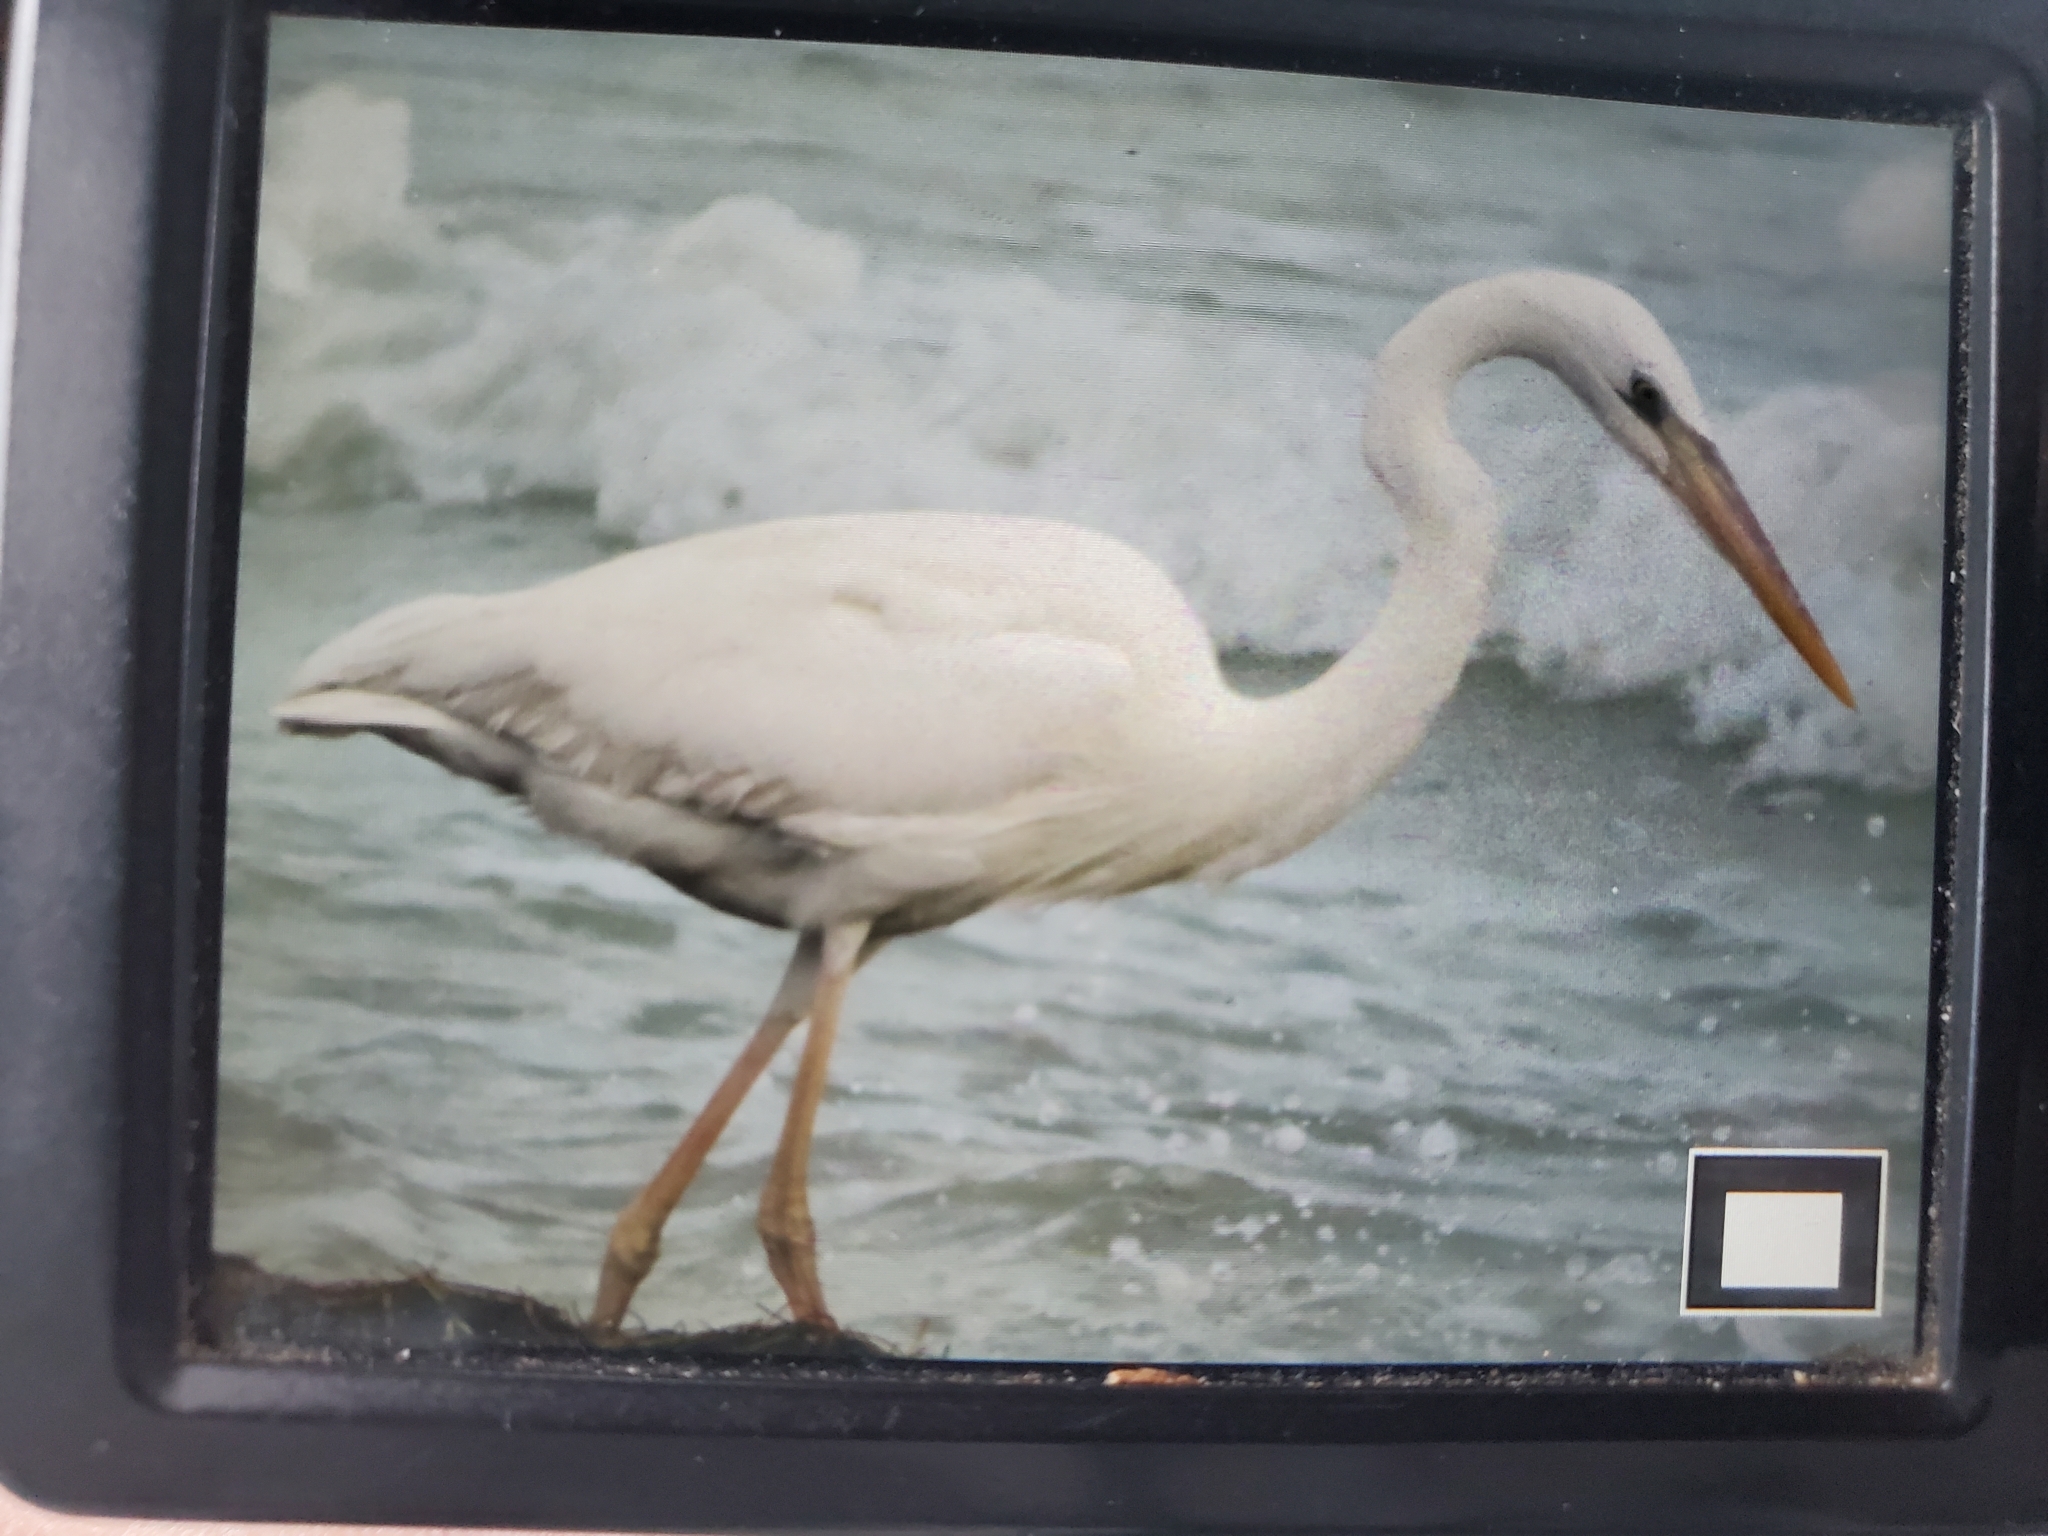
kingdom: Animalia
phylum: Chordata
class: Aves
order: Pelecaniformes
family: Ardeidae
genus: Ardea
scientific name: Ardea herodias
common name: Great blue heron
